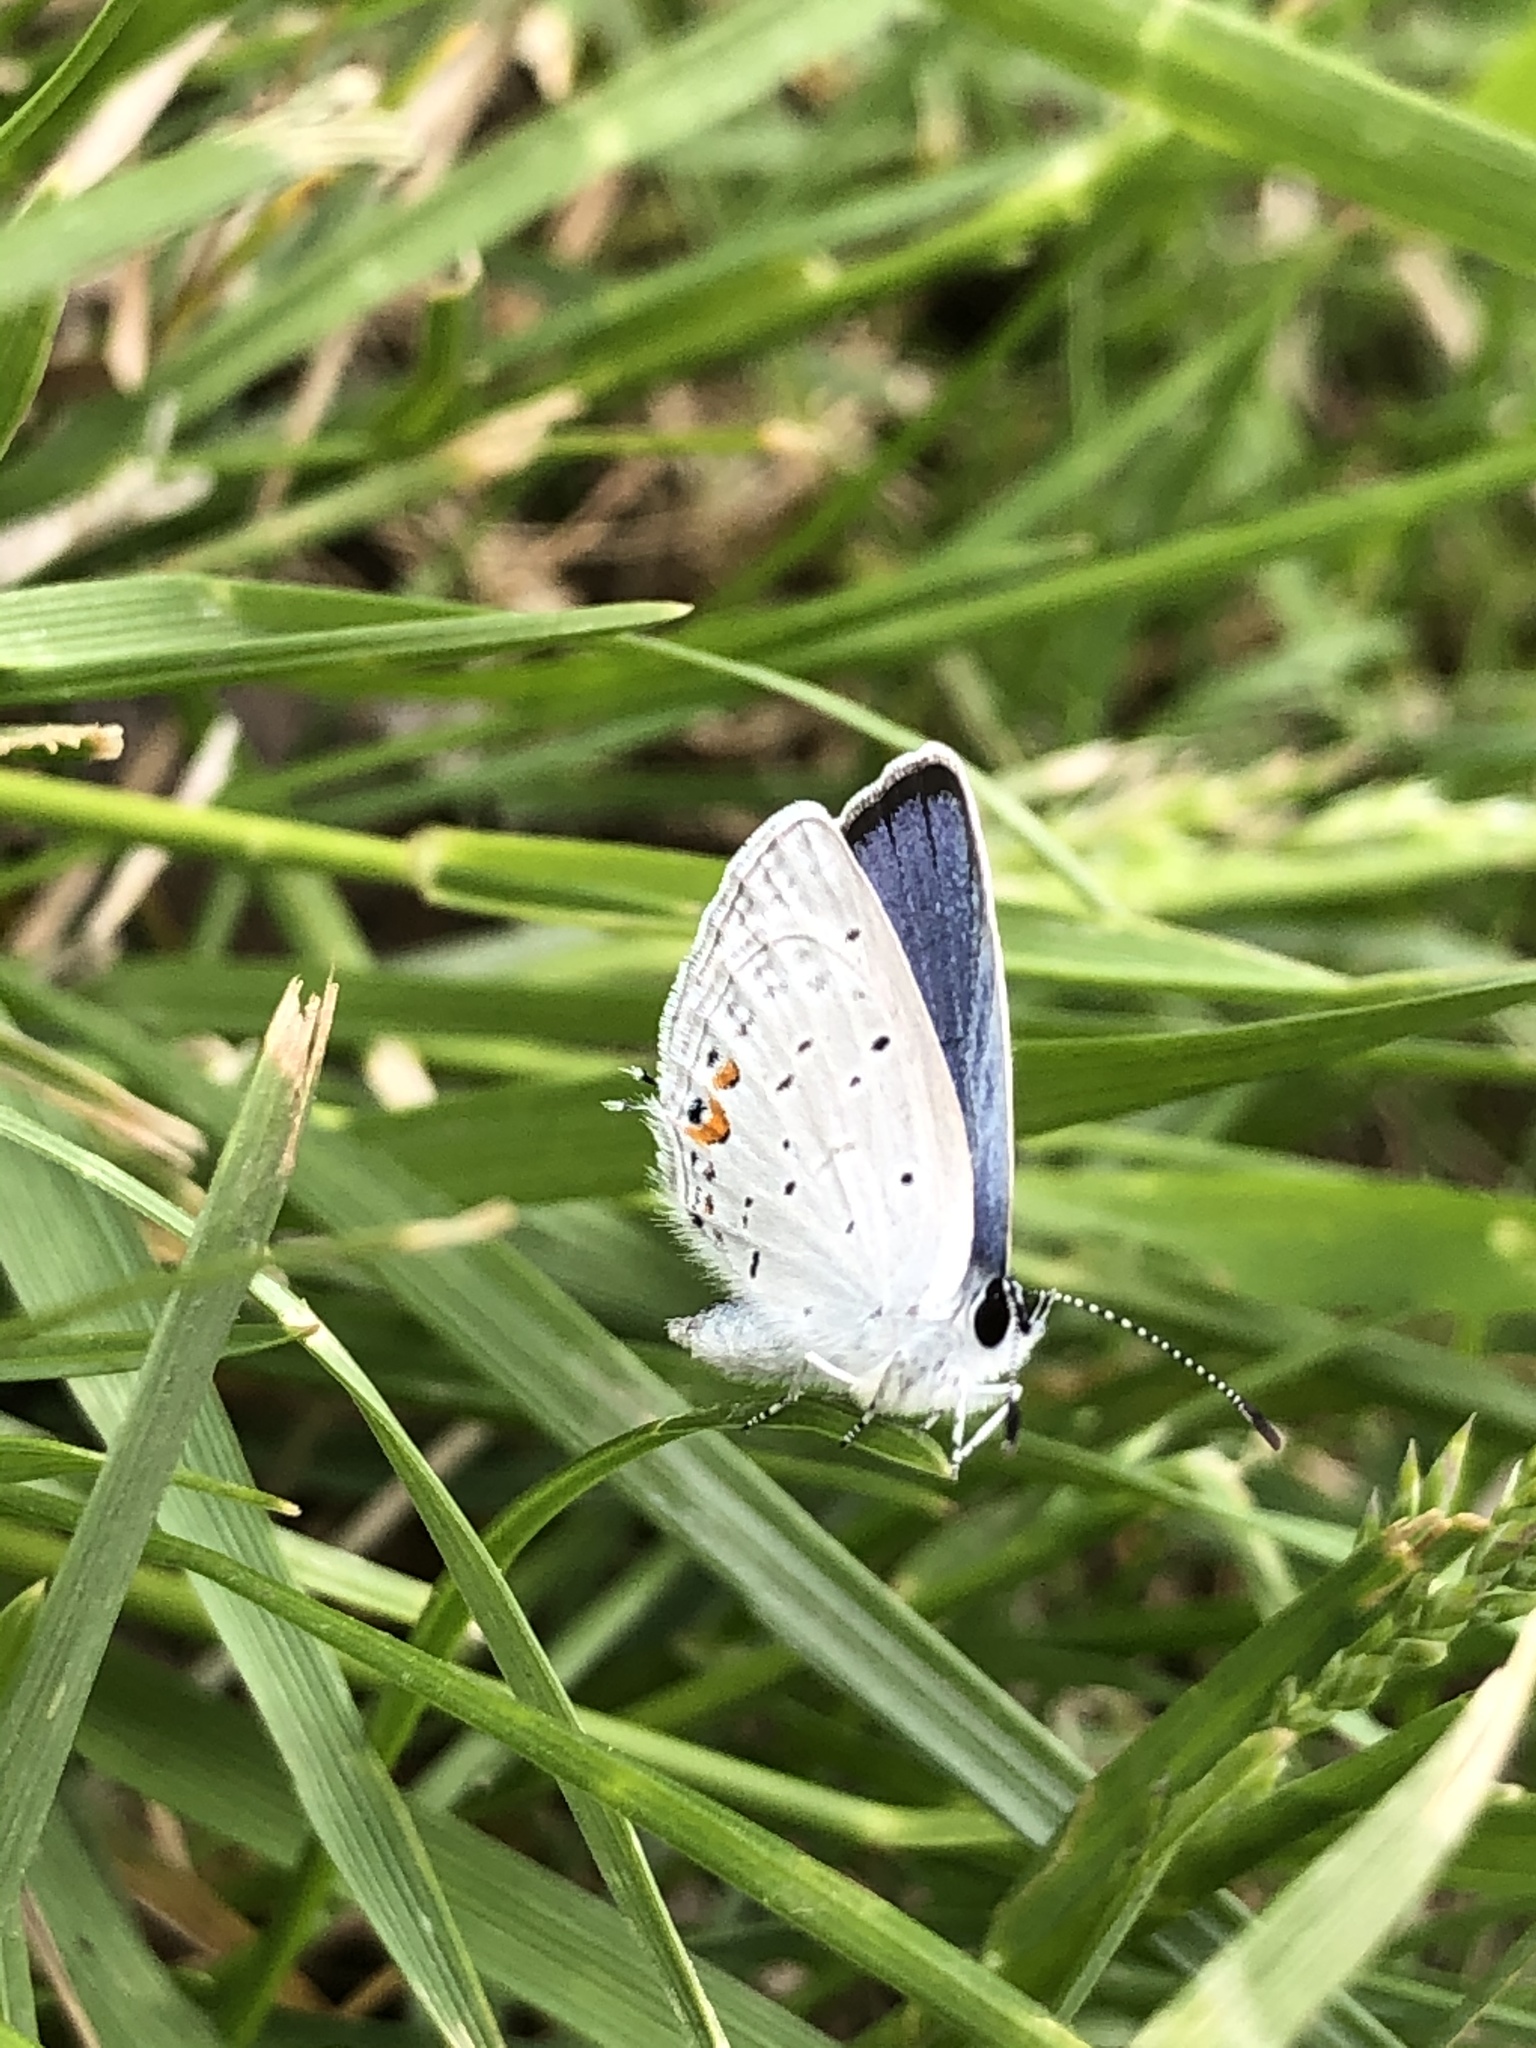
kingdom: Animalia
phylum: Arthropoda
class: Insecta
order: Lepidoptera
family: Lycaenidae
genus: Elkalyce
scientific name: Elkalyce comyntas
